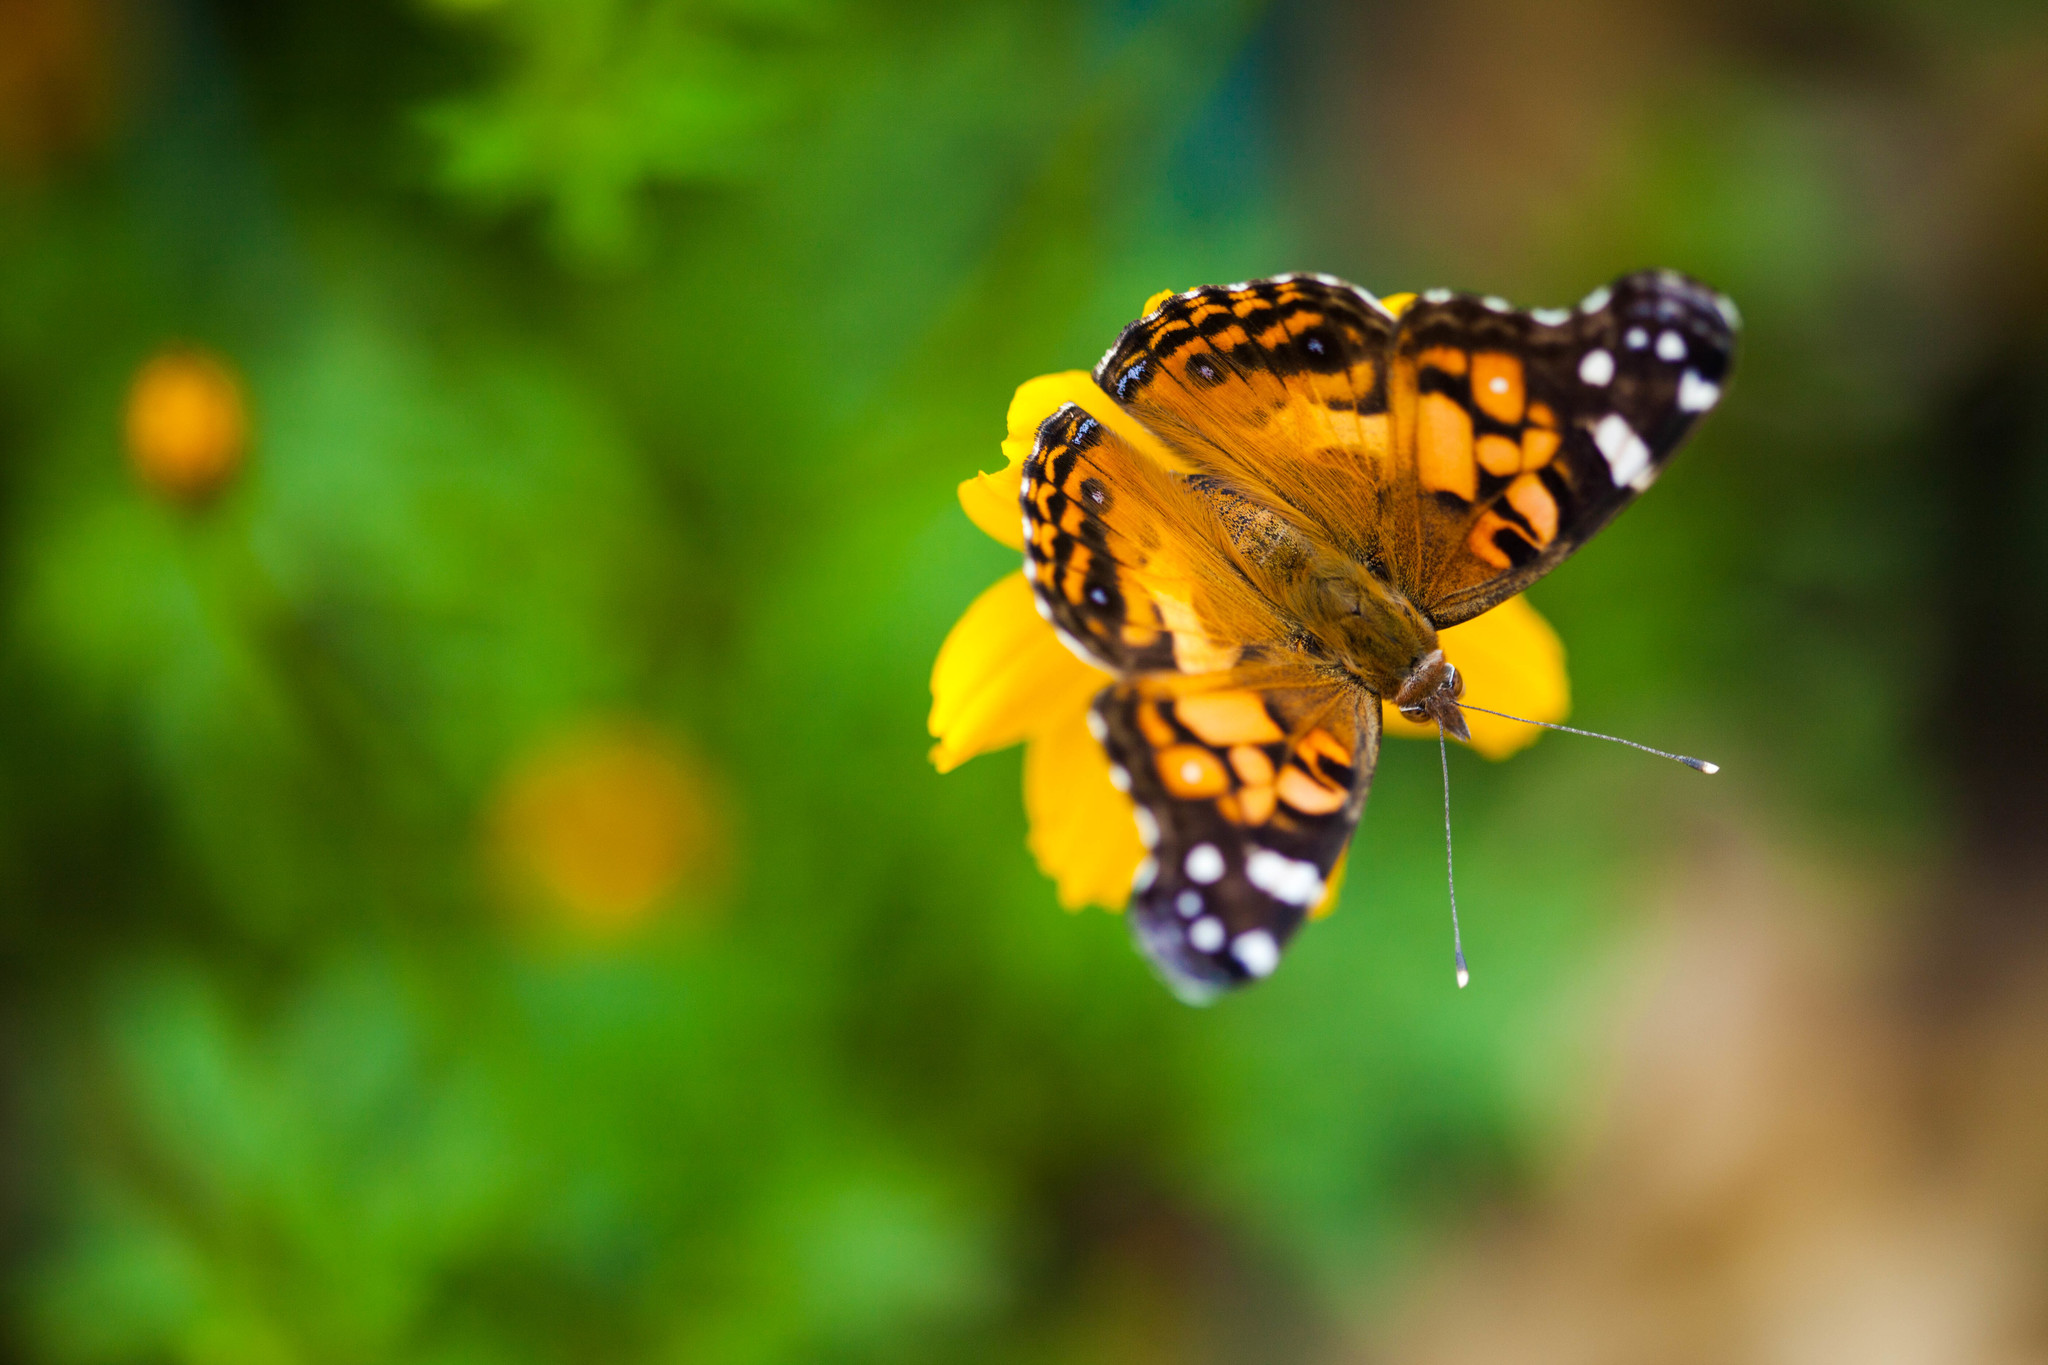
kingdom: Animalia
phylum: Arthropoda
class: Insecta
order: Lepidoptera
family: Nymphalidae
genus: Vanessa
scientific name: Vanessa virginiensis
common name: American lady
